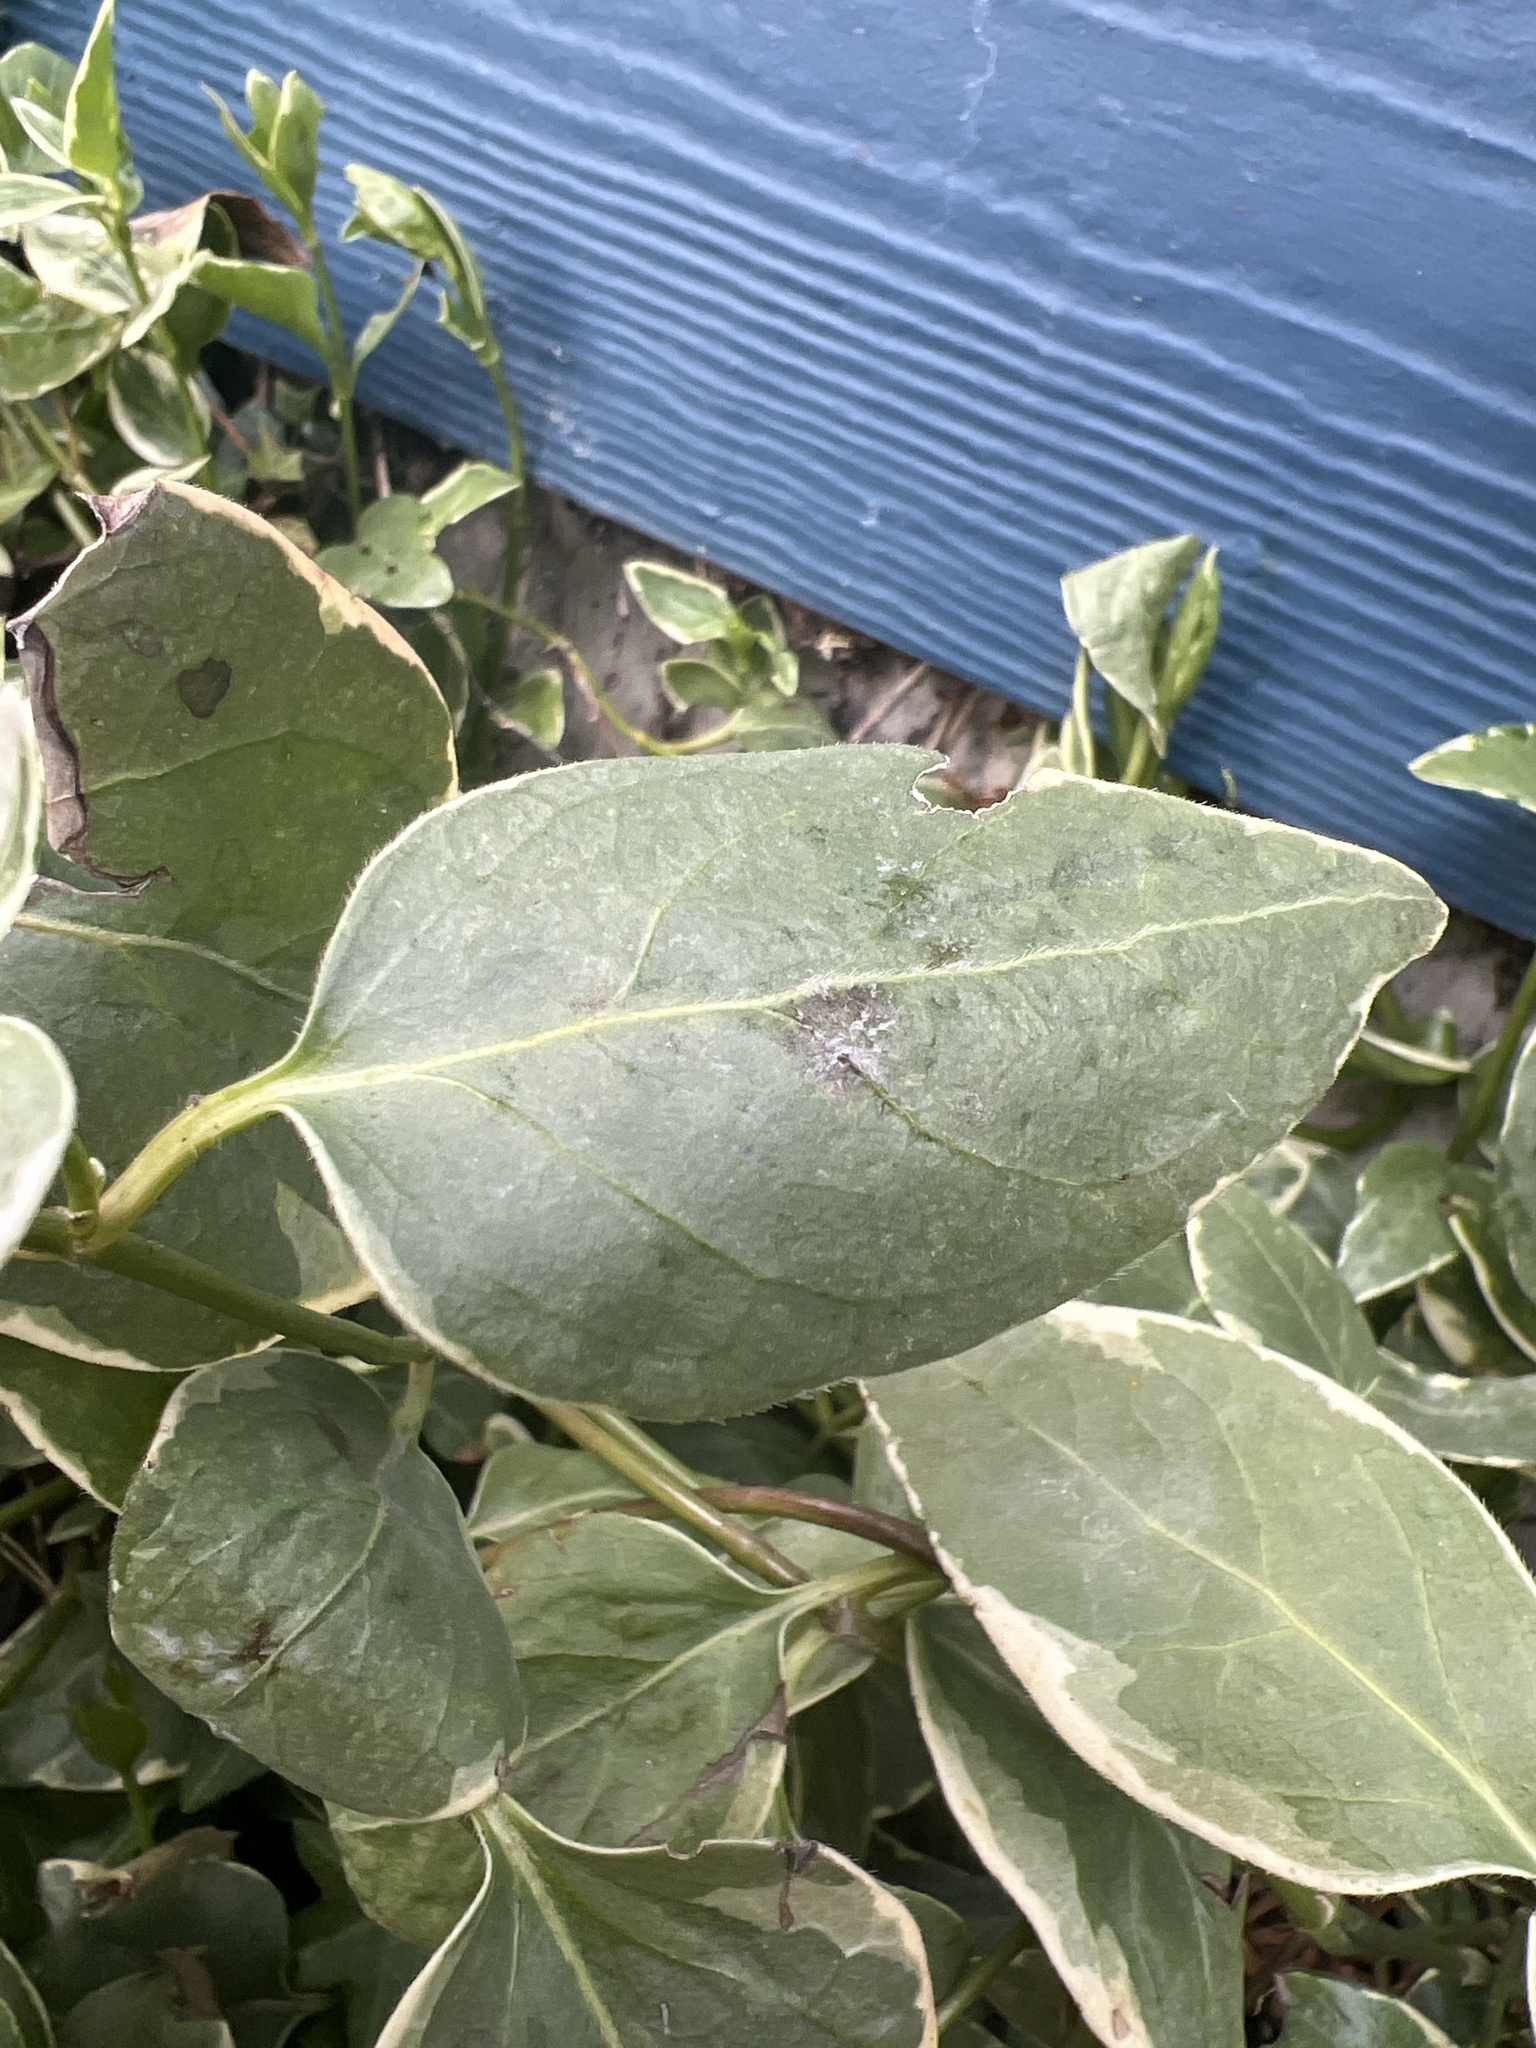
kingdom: Plantae
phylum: Tracheophyta
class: Magnoliopsida
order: Gentianales
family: Apocynaceae
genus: Vinca
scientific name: Vinca major
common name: Greater periwinkle
